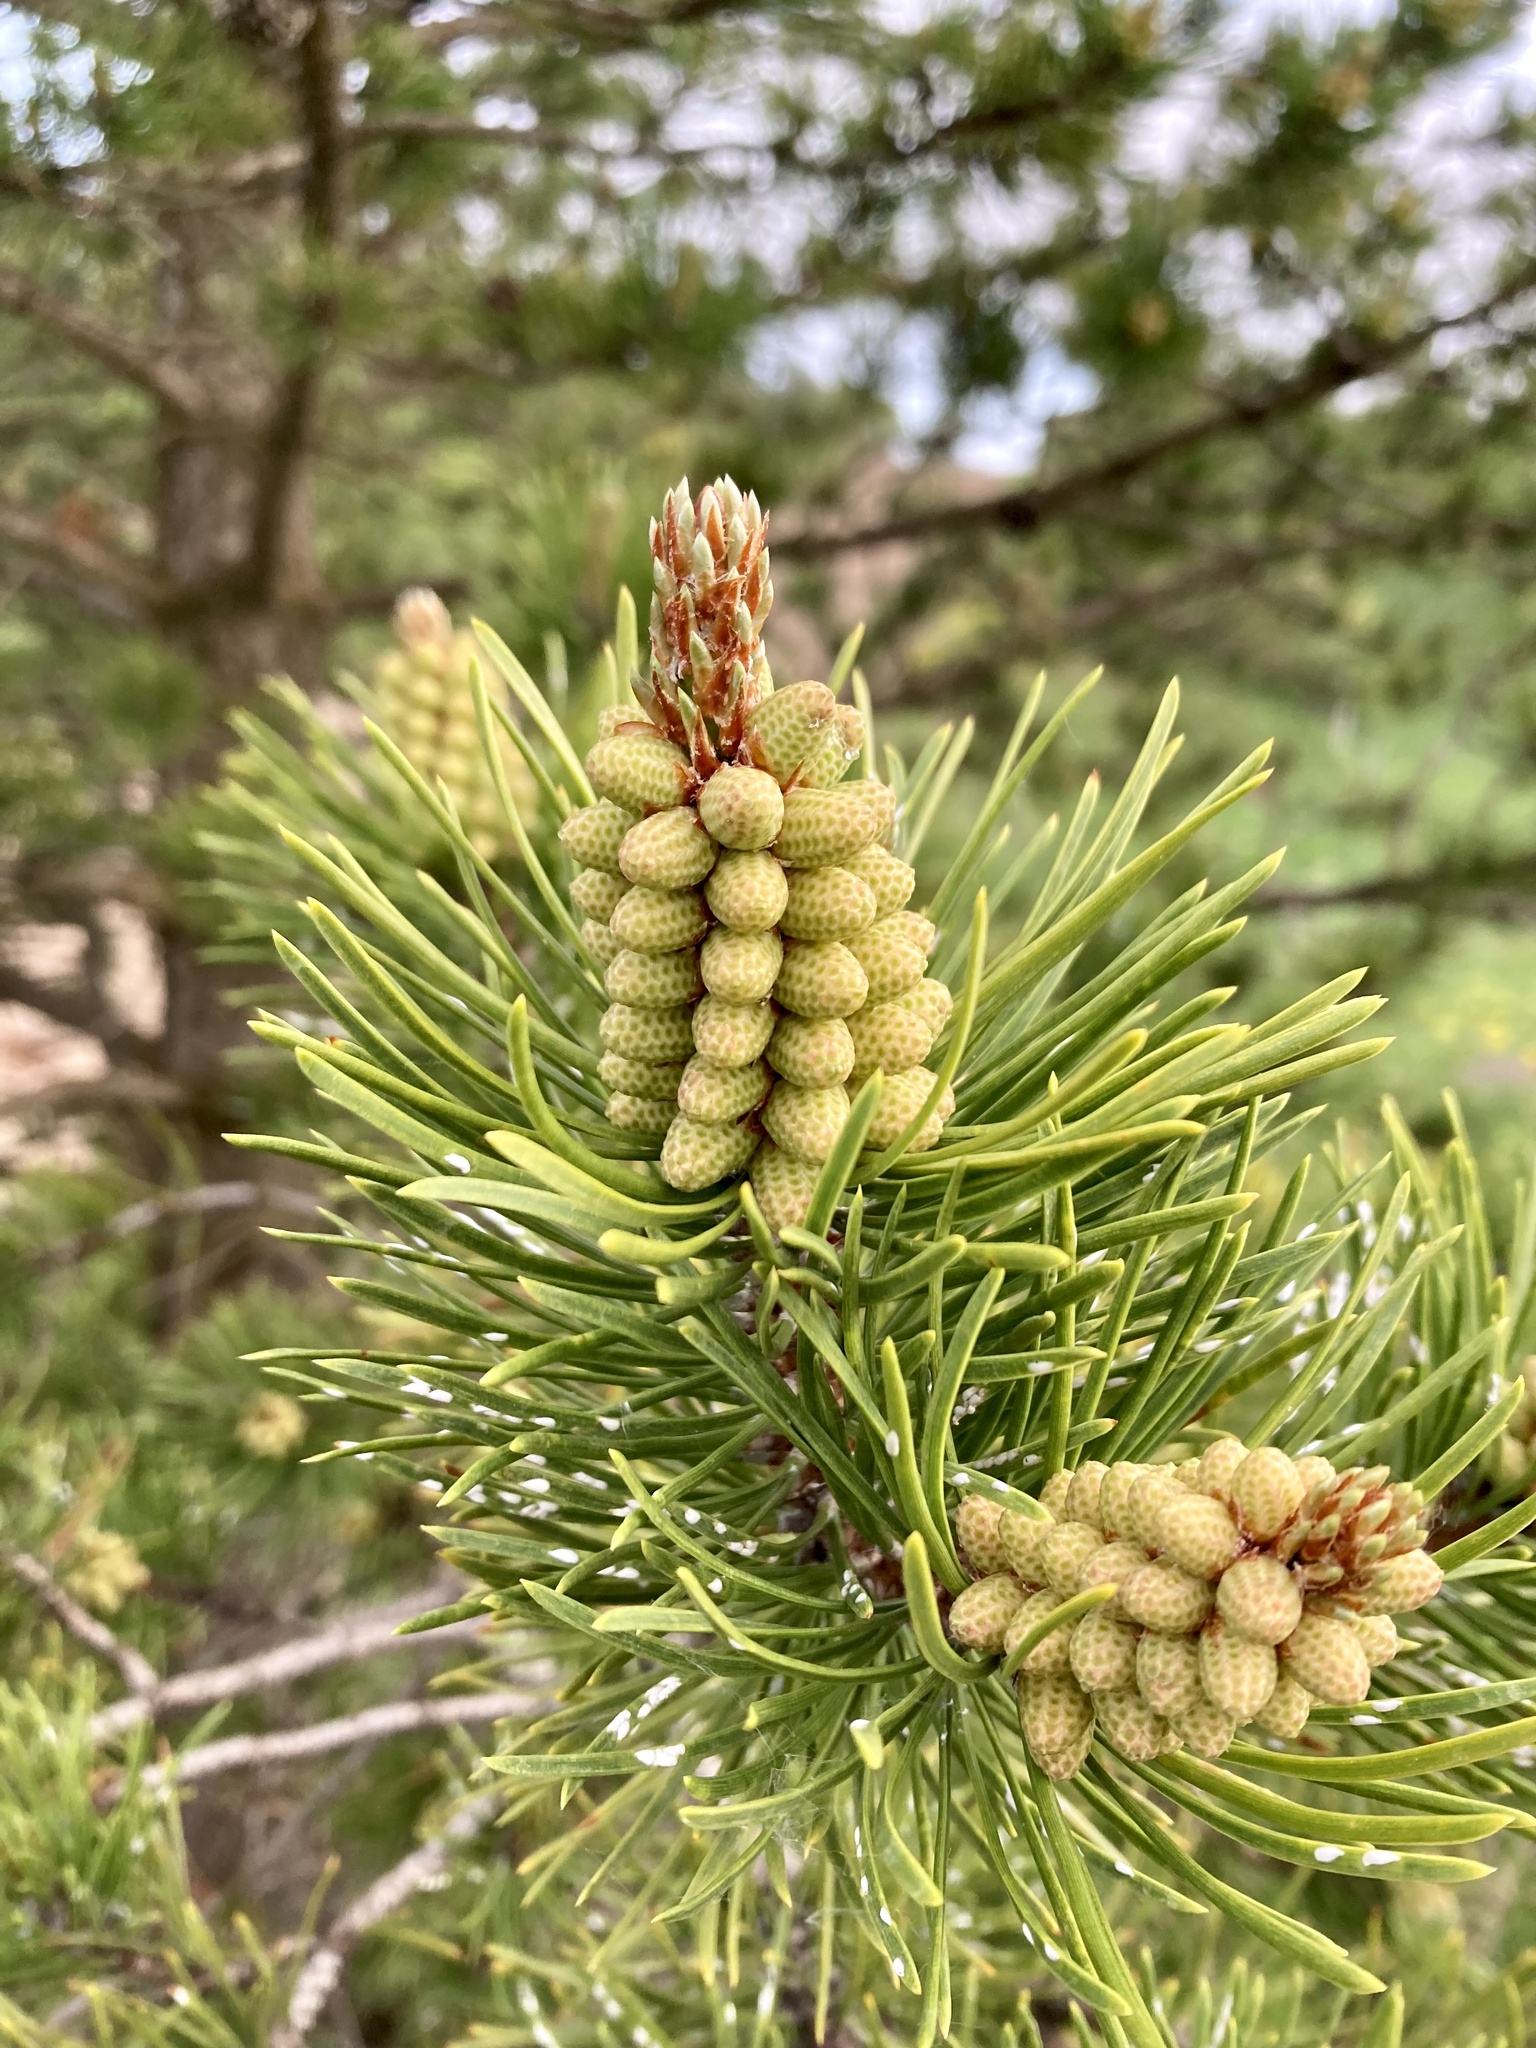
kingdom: Plantae
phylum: Tracheophyta
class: Pinopsida
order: Pinales
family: Pinaceae
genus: Pinus
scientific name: Pinus contorta
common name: Lodgepole pine
